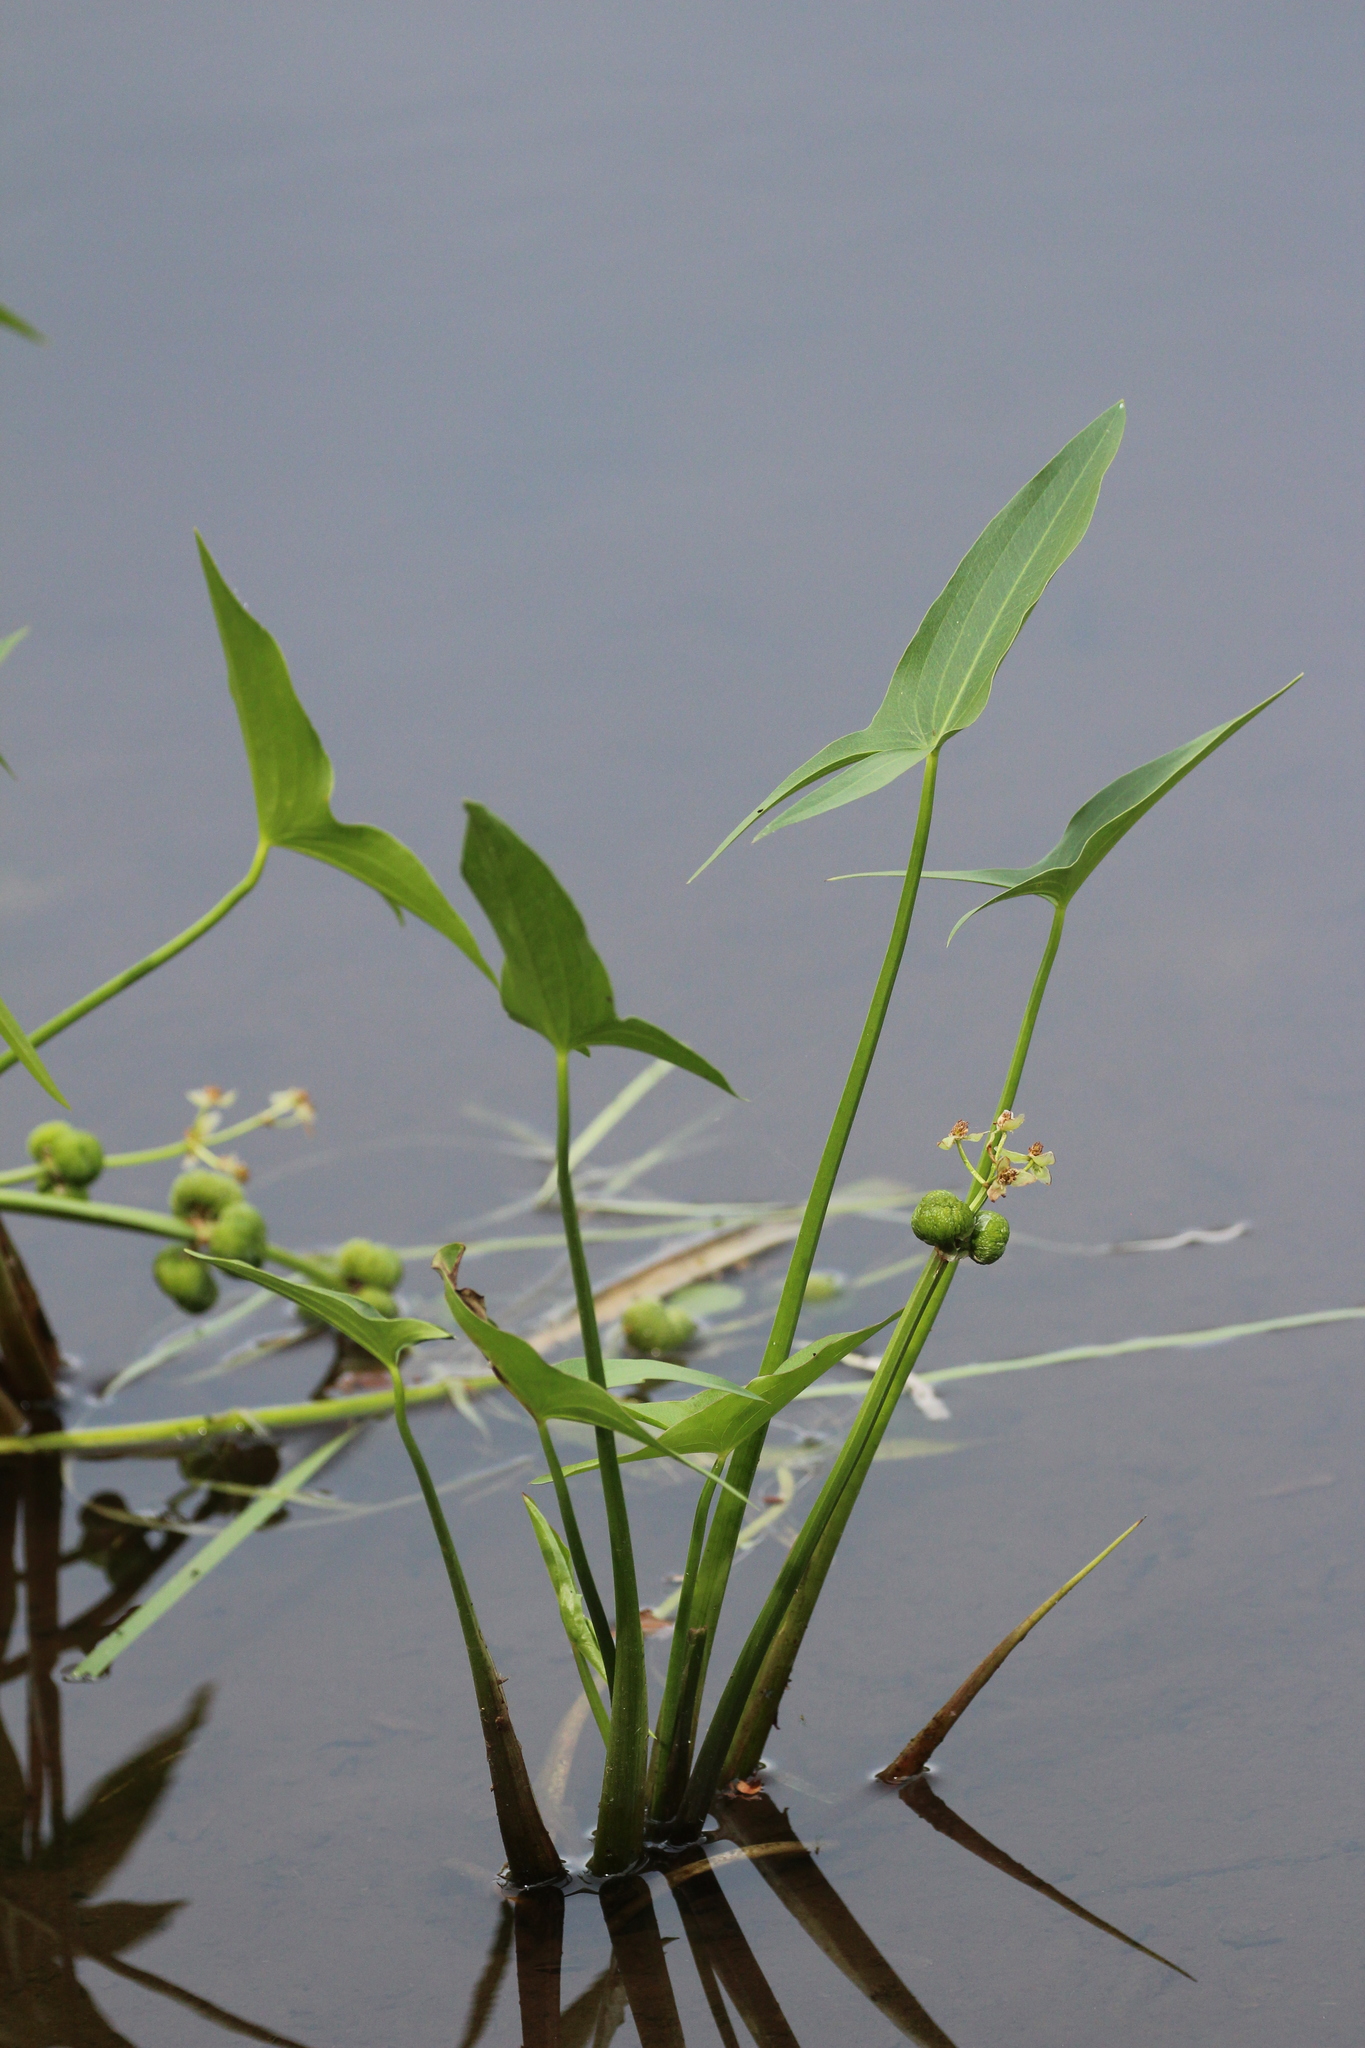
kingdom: Plantae
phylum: Tracheophyta
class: Liliopsida
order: Alismatales
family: Alismataceae
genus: Sagittaria
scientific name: Sagittaria latifolia
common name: Duck-potato
